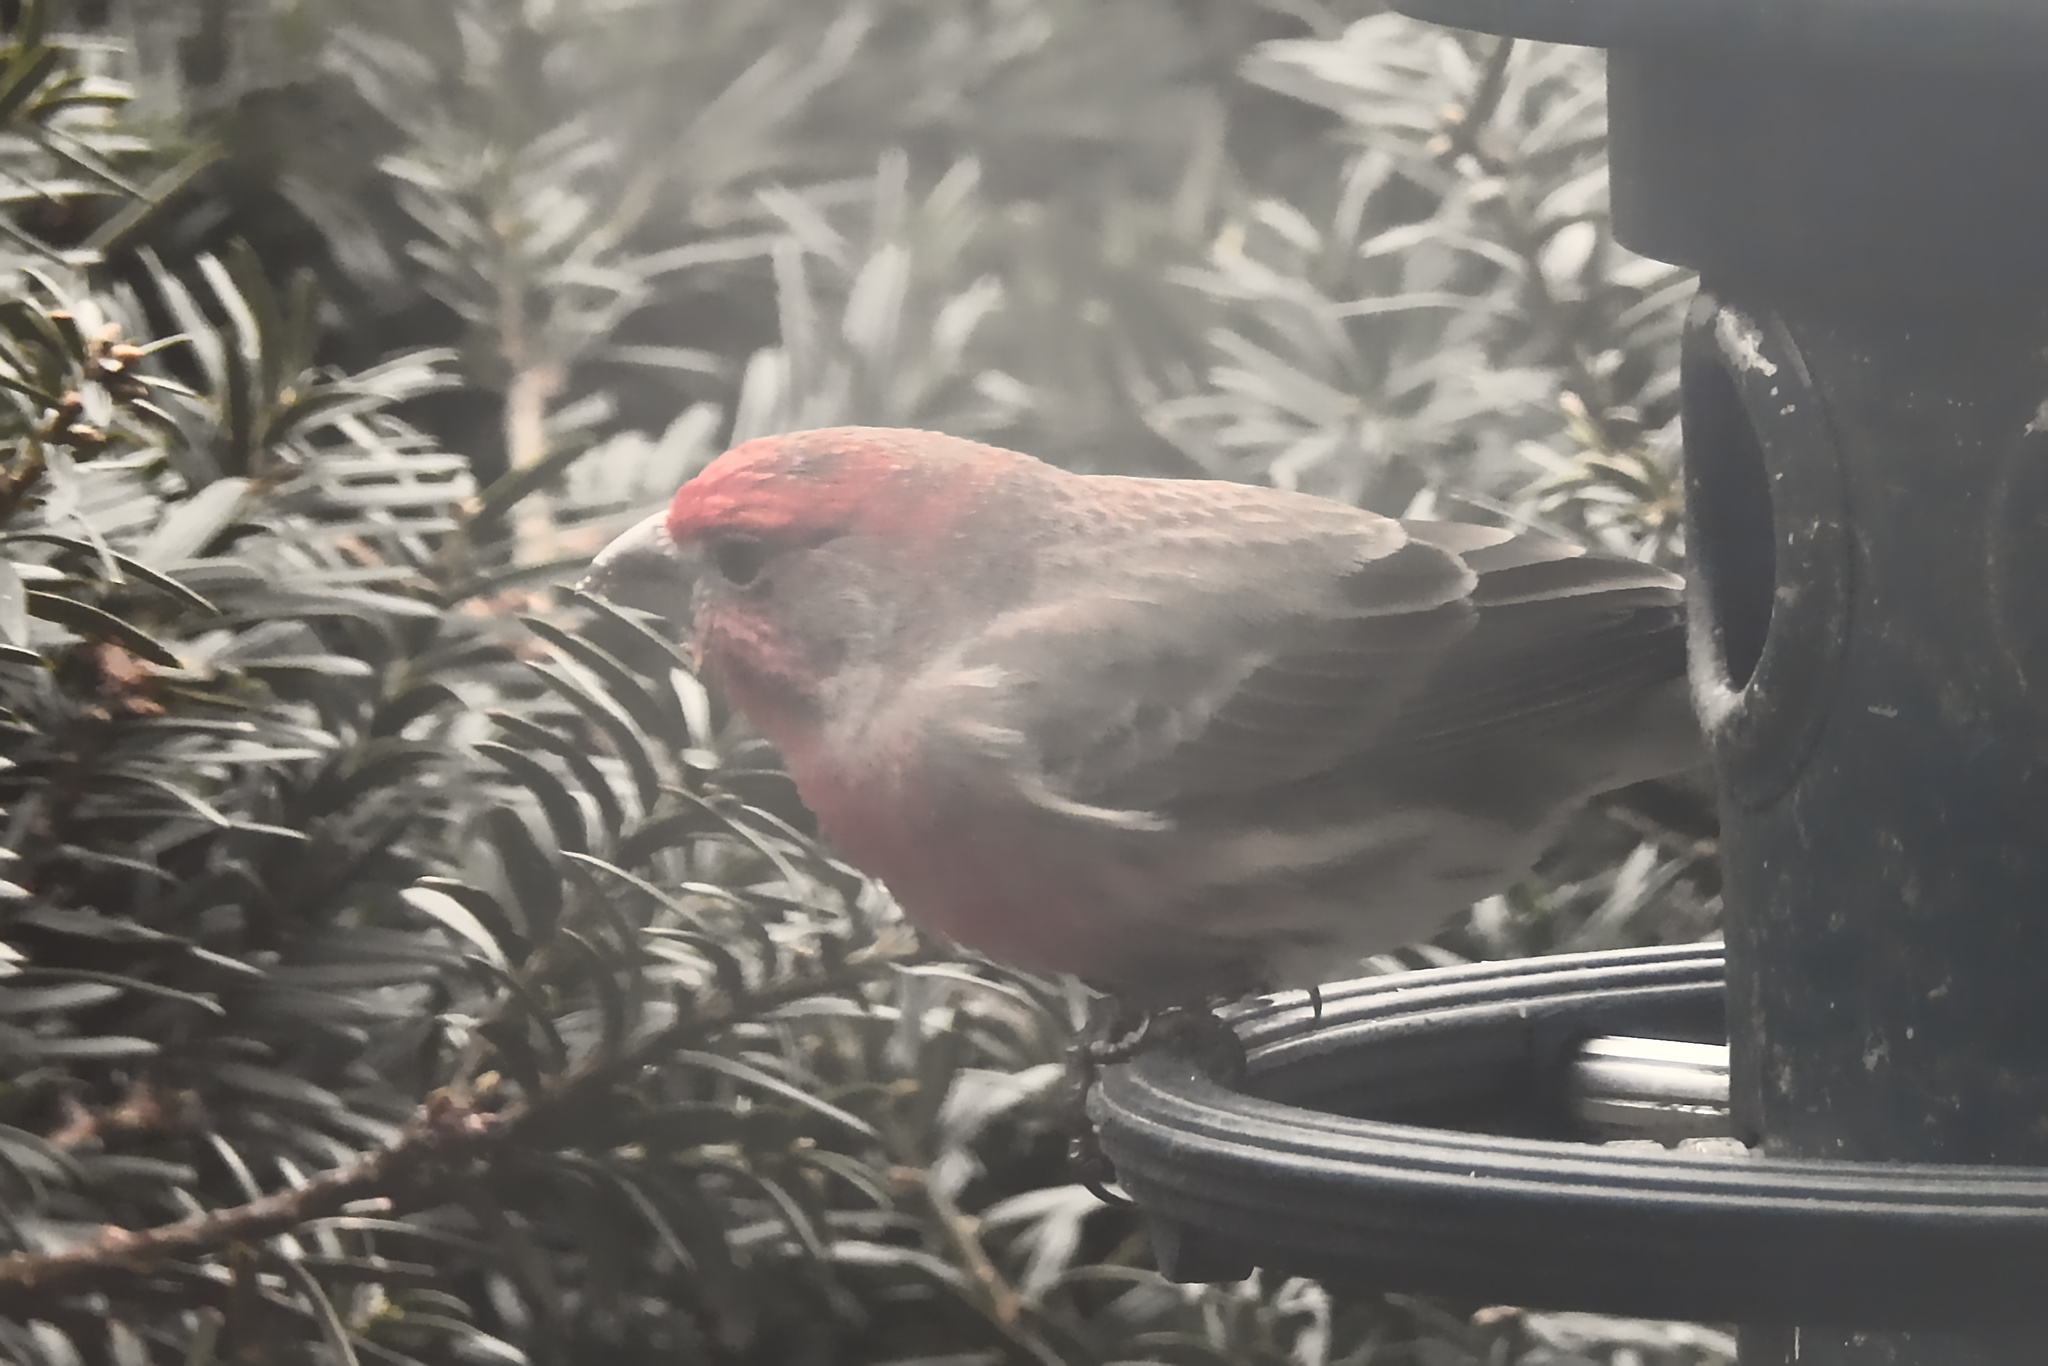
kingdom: Animalia
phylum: Chordata
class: Aves
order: Passeriformes
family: Fringillidae
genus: Haemorhous
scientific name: Haemorhous mexicanus
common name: House finch
